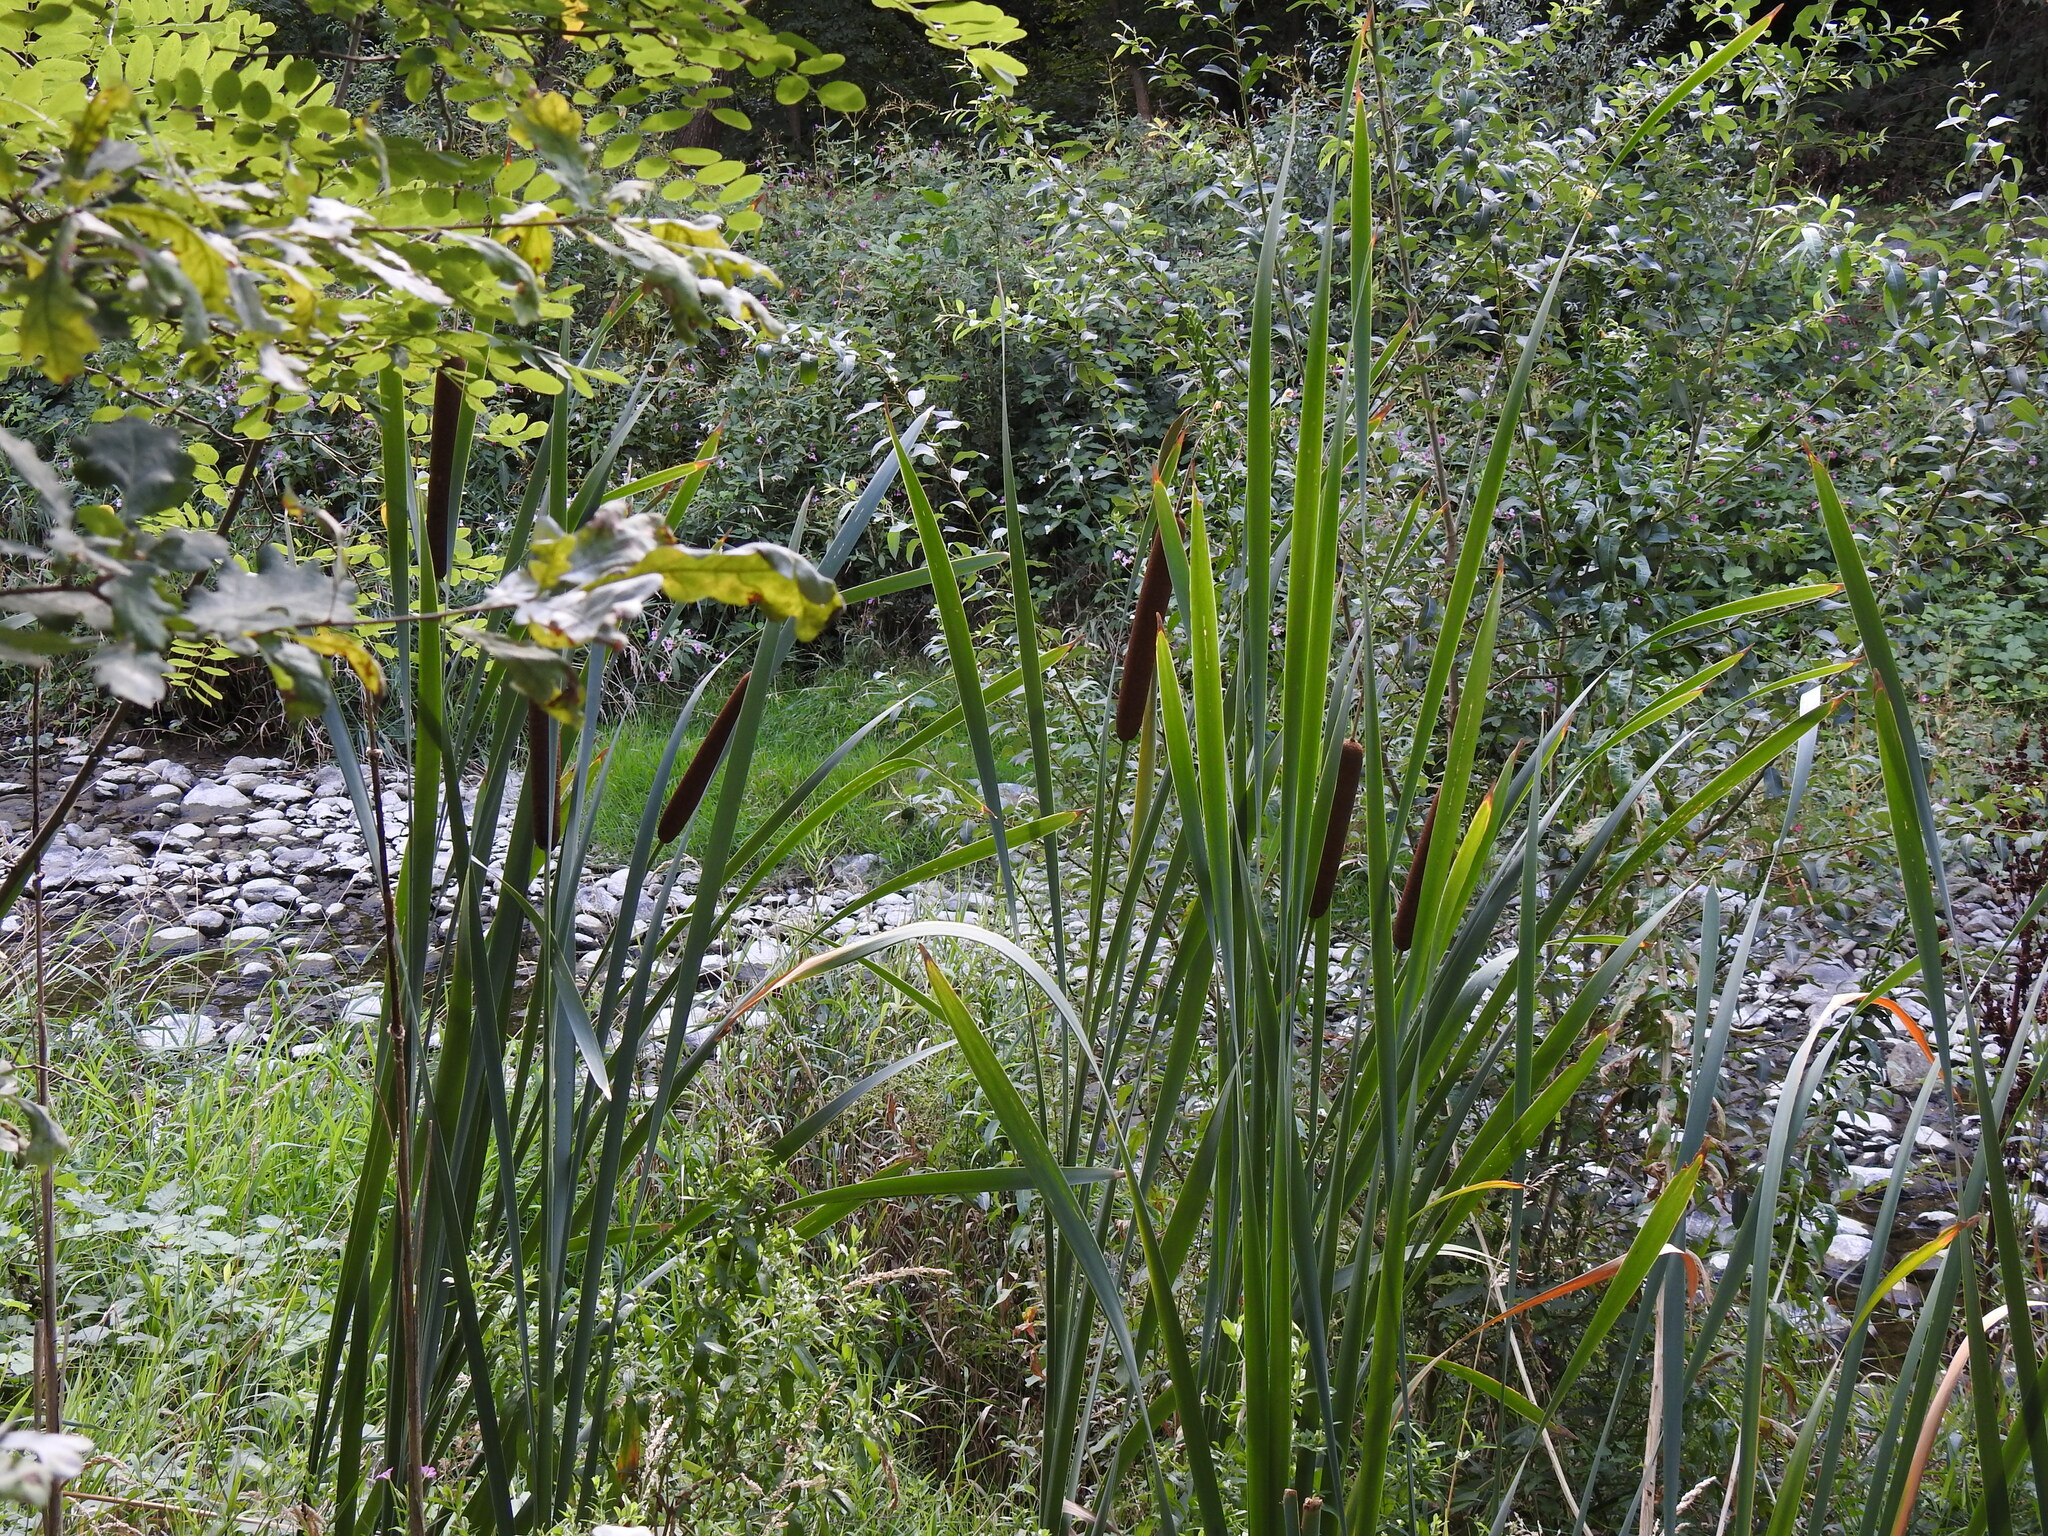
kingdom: Plantae
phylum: Tracheophyta
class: Liliopsida
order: Poales
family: Typhaceae
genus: Typha
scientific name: Typha latifolia
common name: Broadleaf cattail
